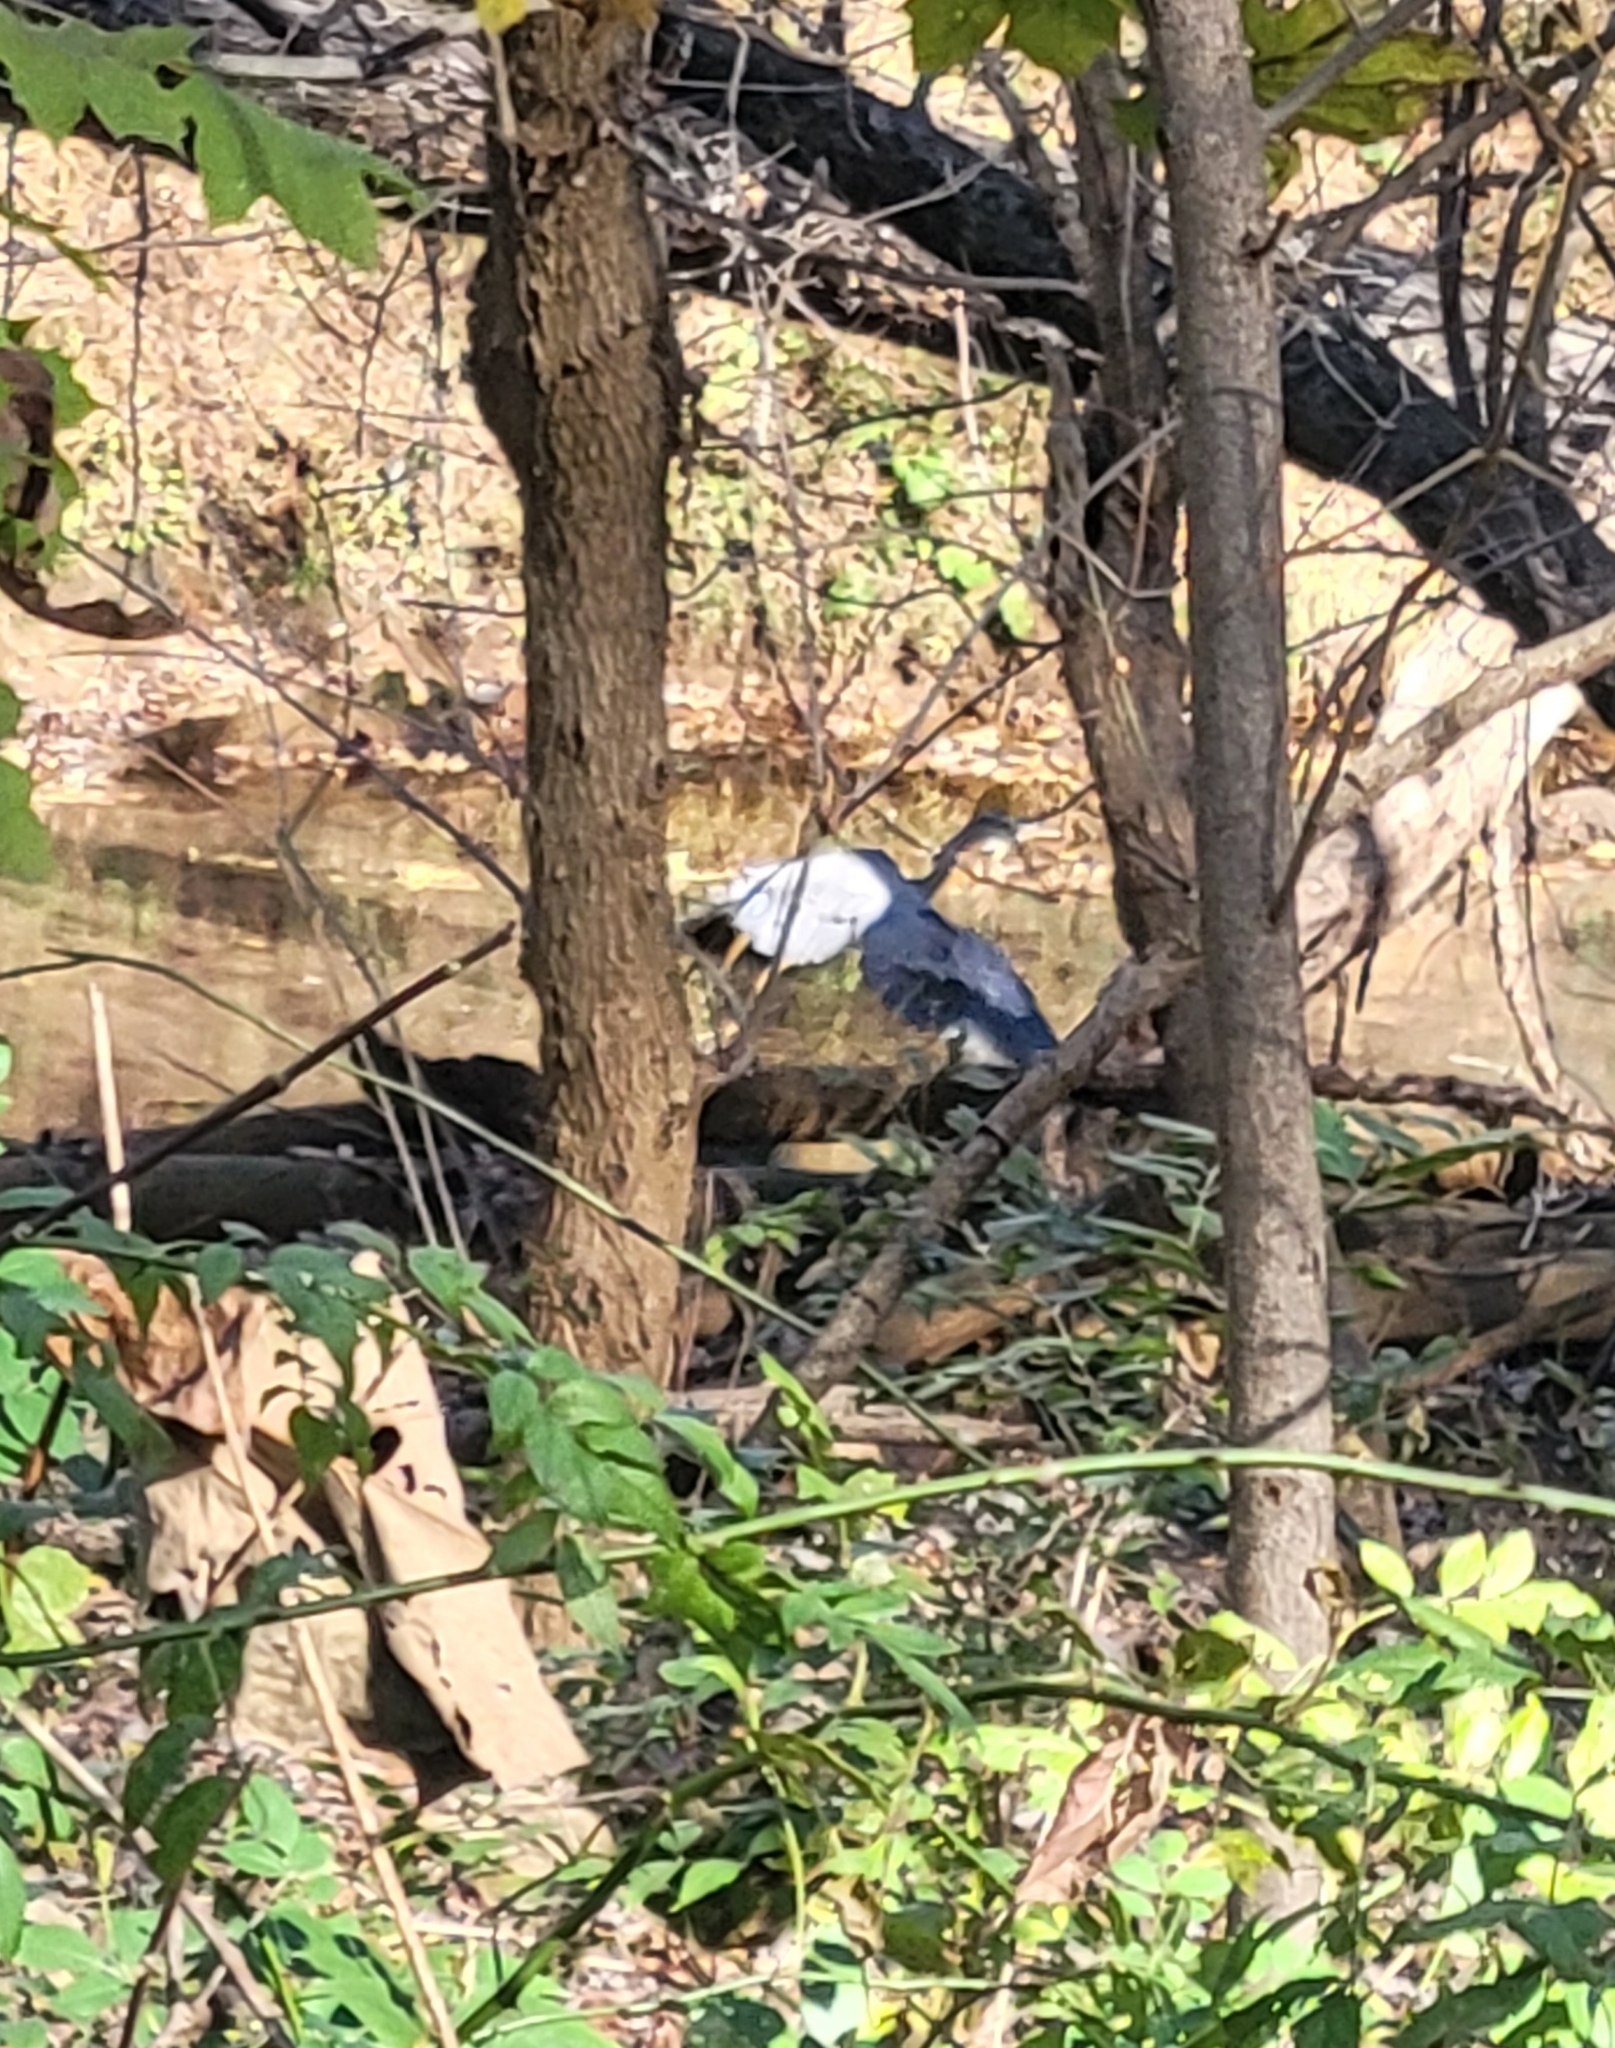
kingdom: Animalia
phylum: Chordata
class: Aves
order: Pelecaniformes
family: Ardeidae
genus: Ardea
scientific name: Ardea herodias
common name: Great blue heron
